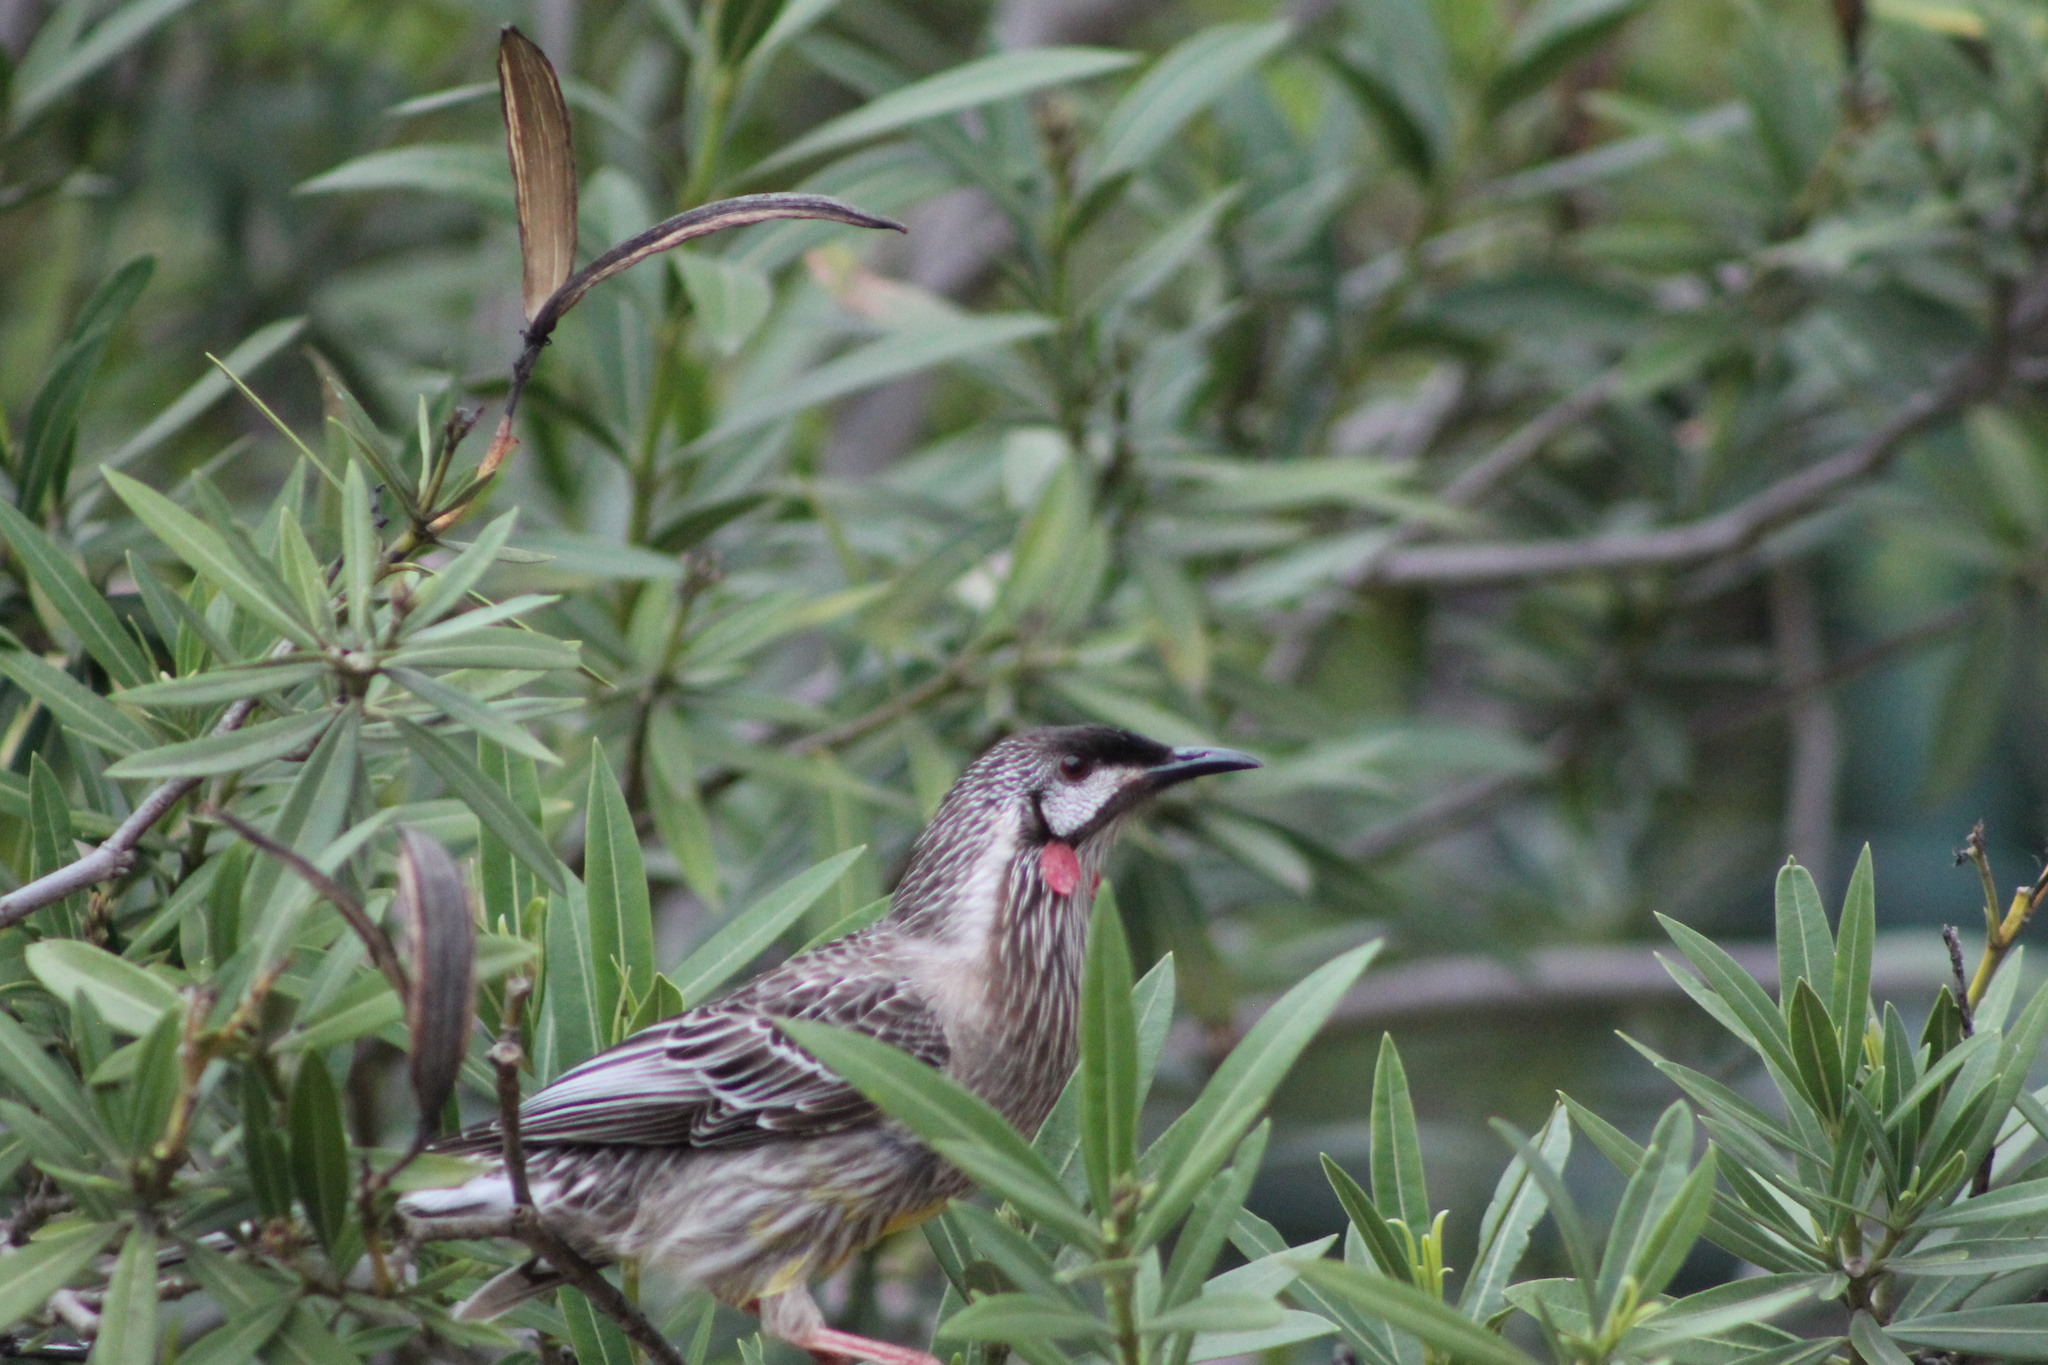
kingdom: Animalia
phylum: Chordata
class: Aves
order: Passeriformes
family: Meliphagidae
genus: Anthochaera
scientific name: Anthochaera carunculata
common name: Red wattlebird
